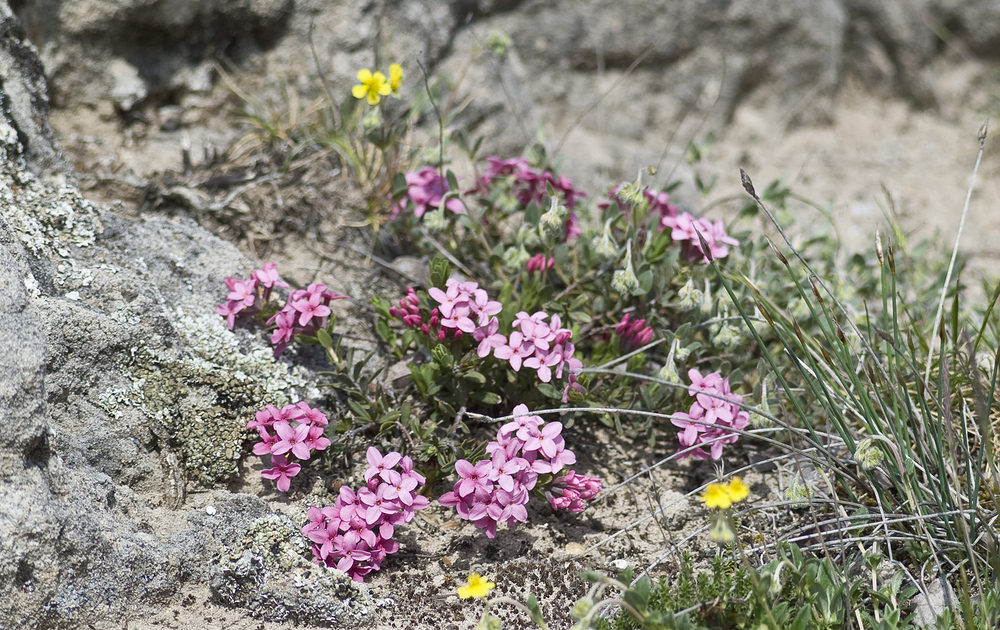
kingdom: Plantae
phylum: Tracheophyta
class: Magnoliopsida
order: Malvales
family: Thymelaeaceae
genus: Daphne
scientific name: Daphne cneorum
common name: Garland-flower
